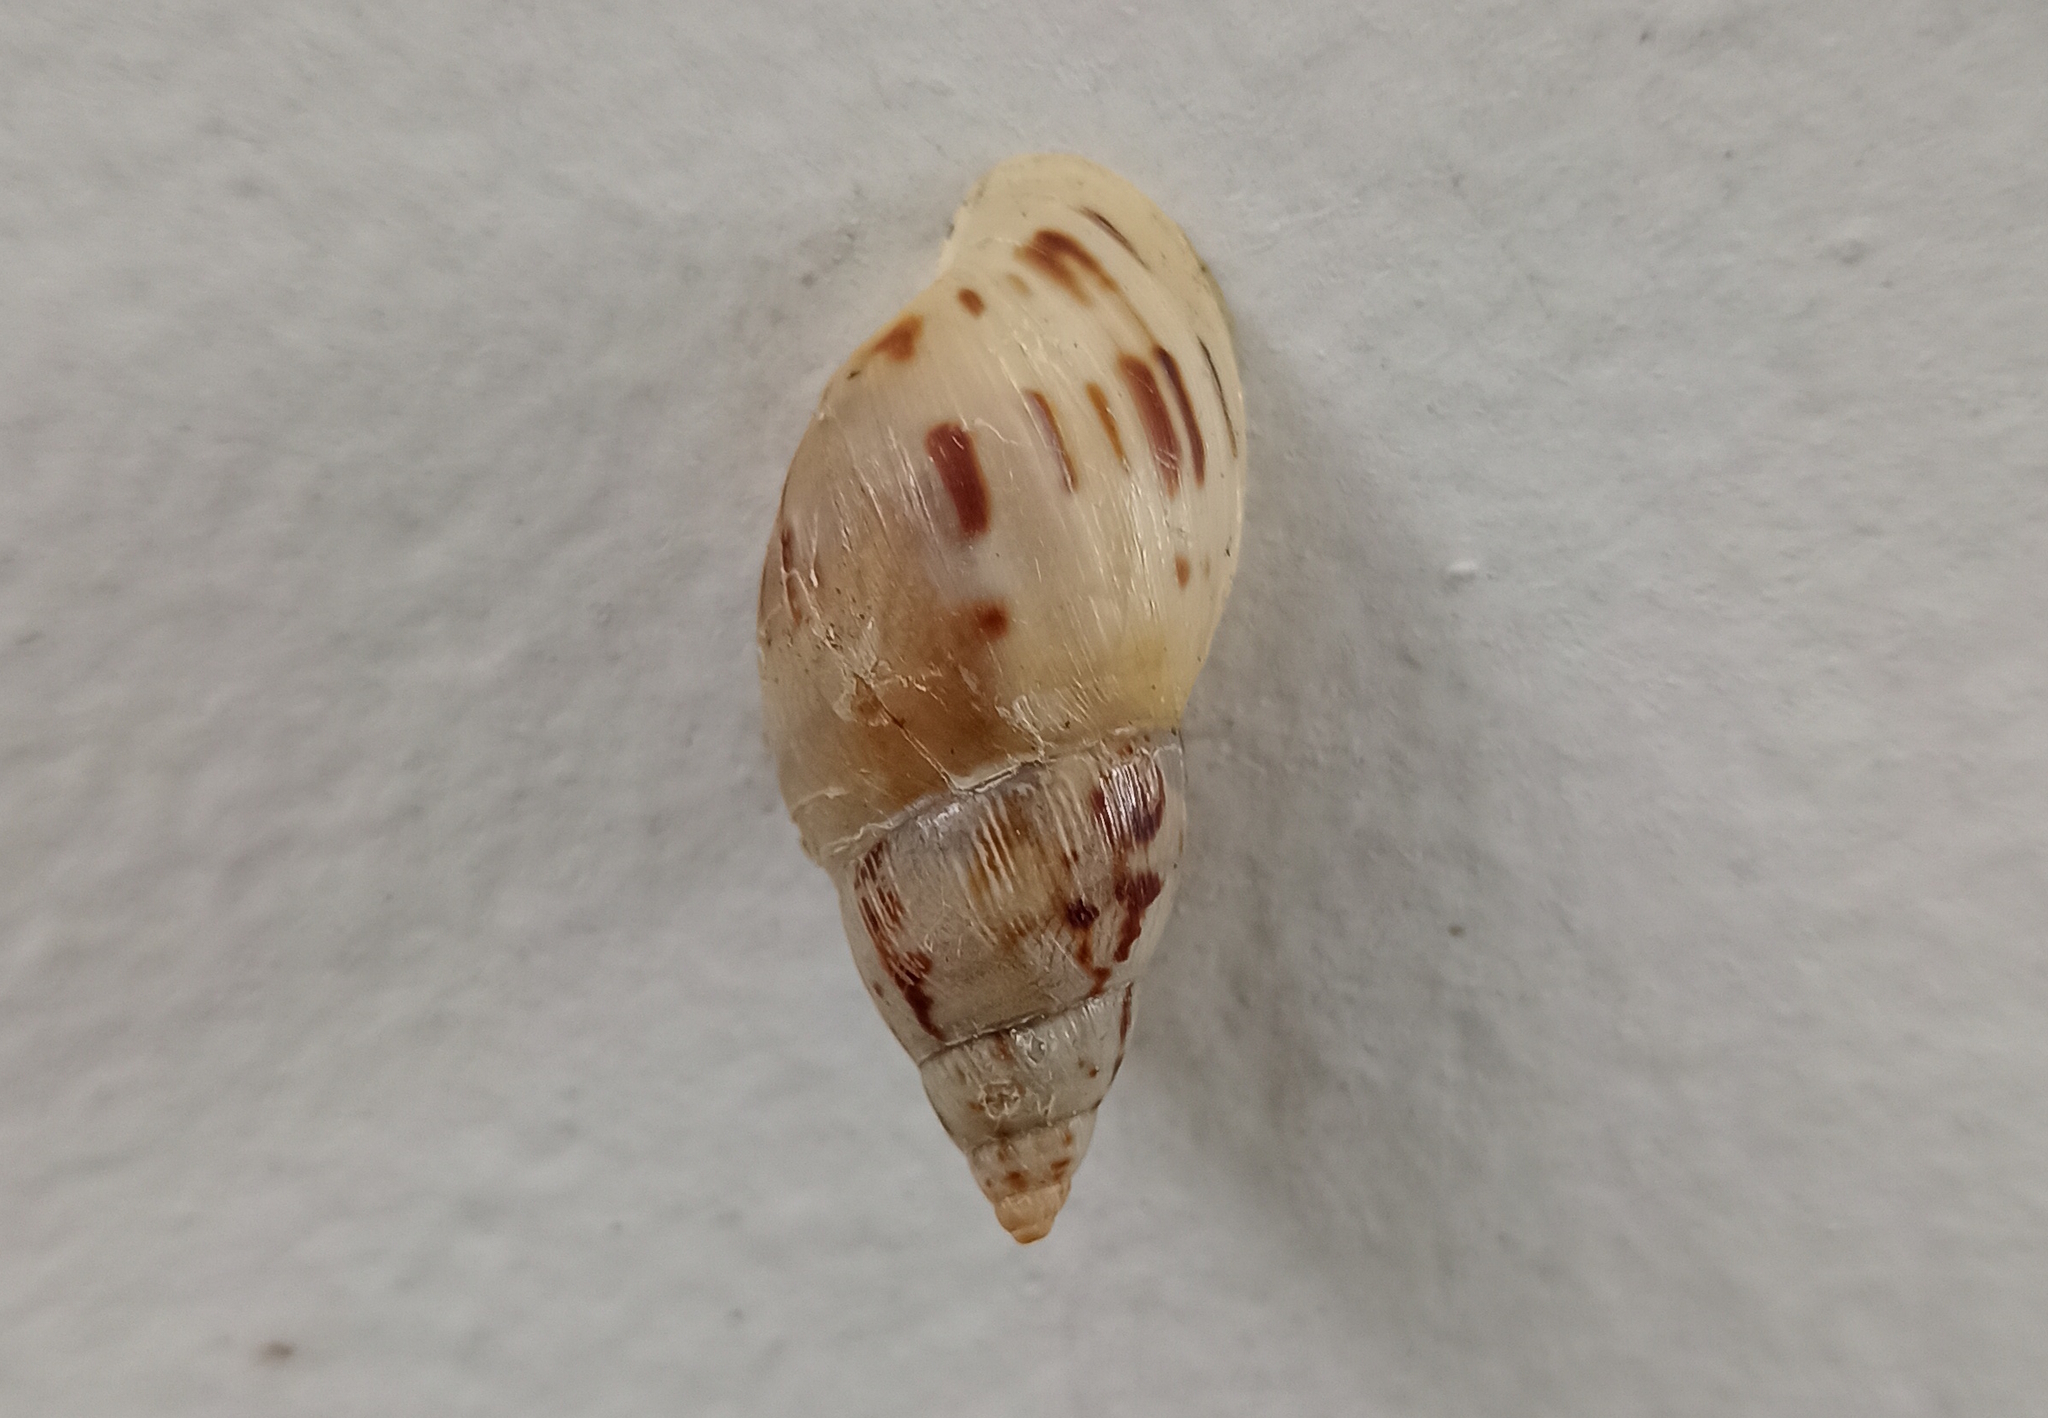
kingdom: Animalia
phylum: Mollusca
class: Gastropoda
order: Stylommatophora
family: Bulimulidae
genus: Drymaeus
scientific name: Drymaeus papyraceus
